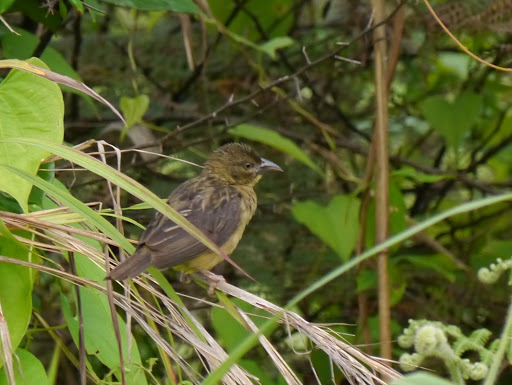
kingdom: Animalia
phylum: Chordata
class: Aves
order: Passeriformes
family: Ploceidae
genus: Ploceus
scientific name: Ploceus nigerrimus
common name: Vieillot's black weaver
